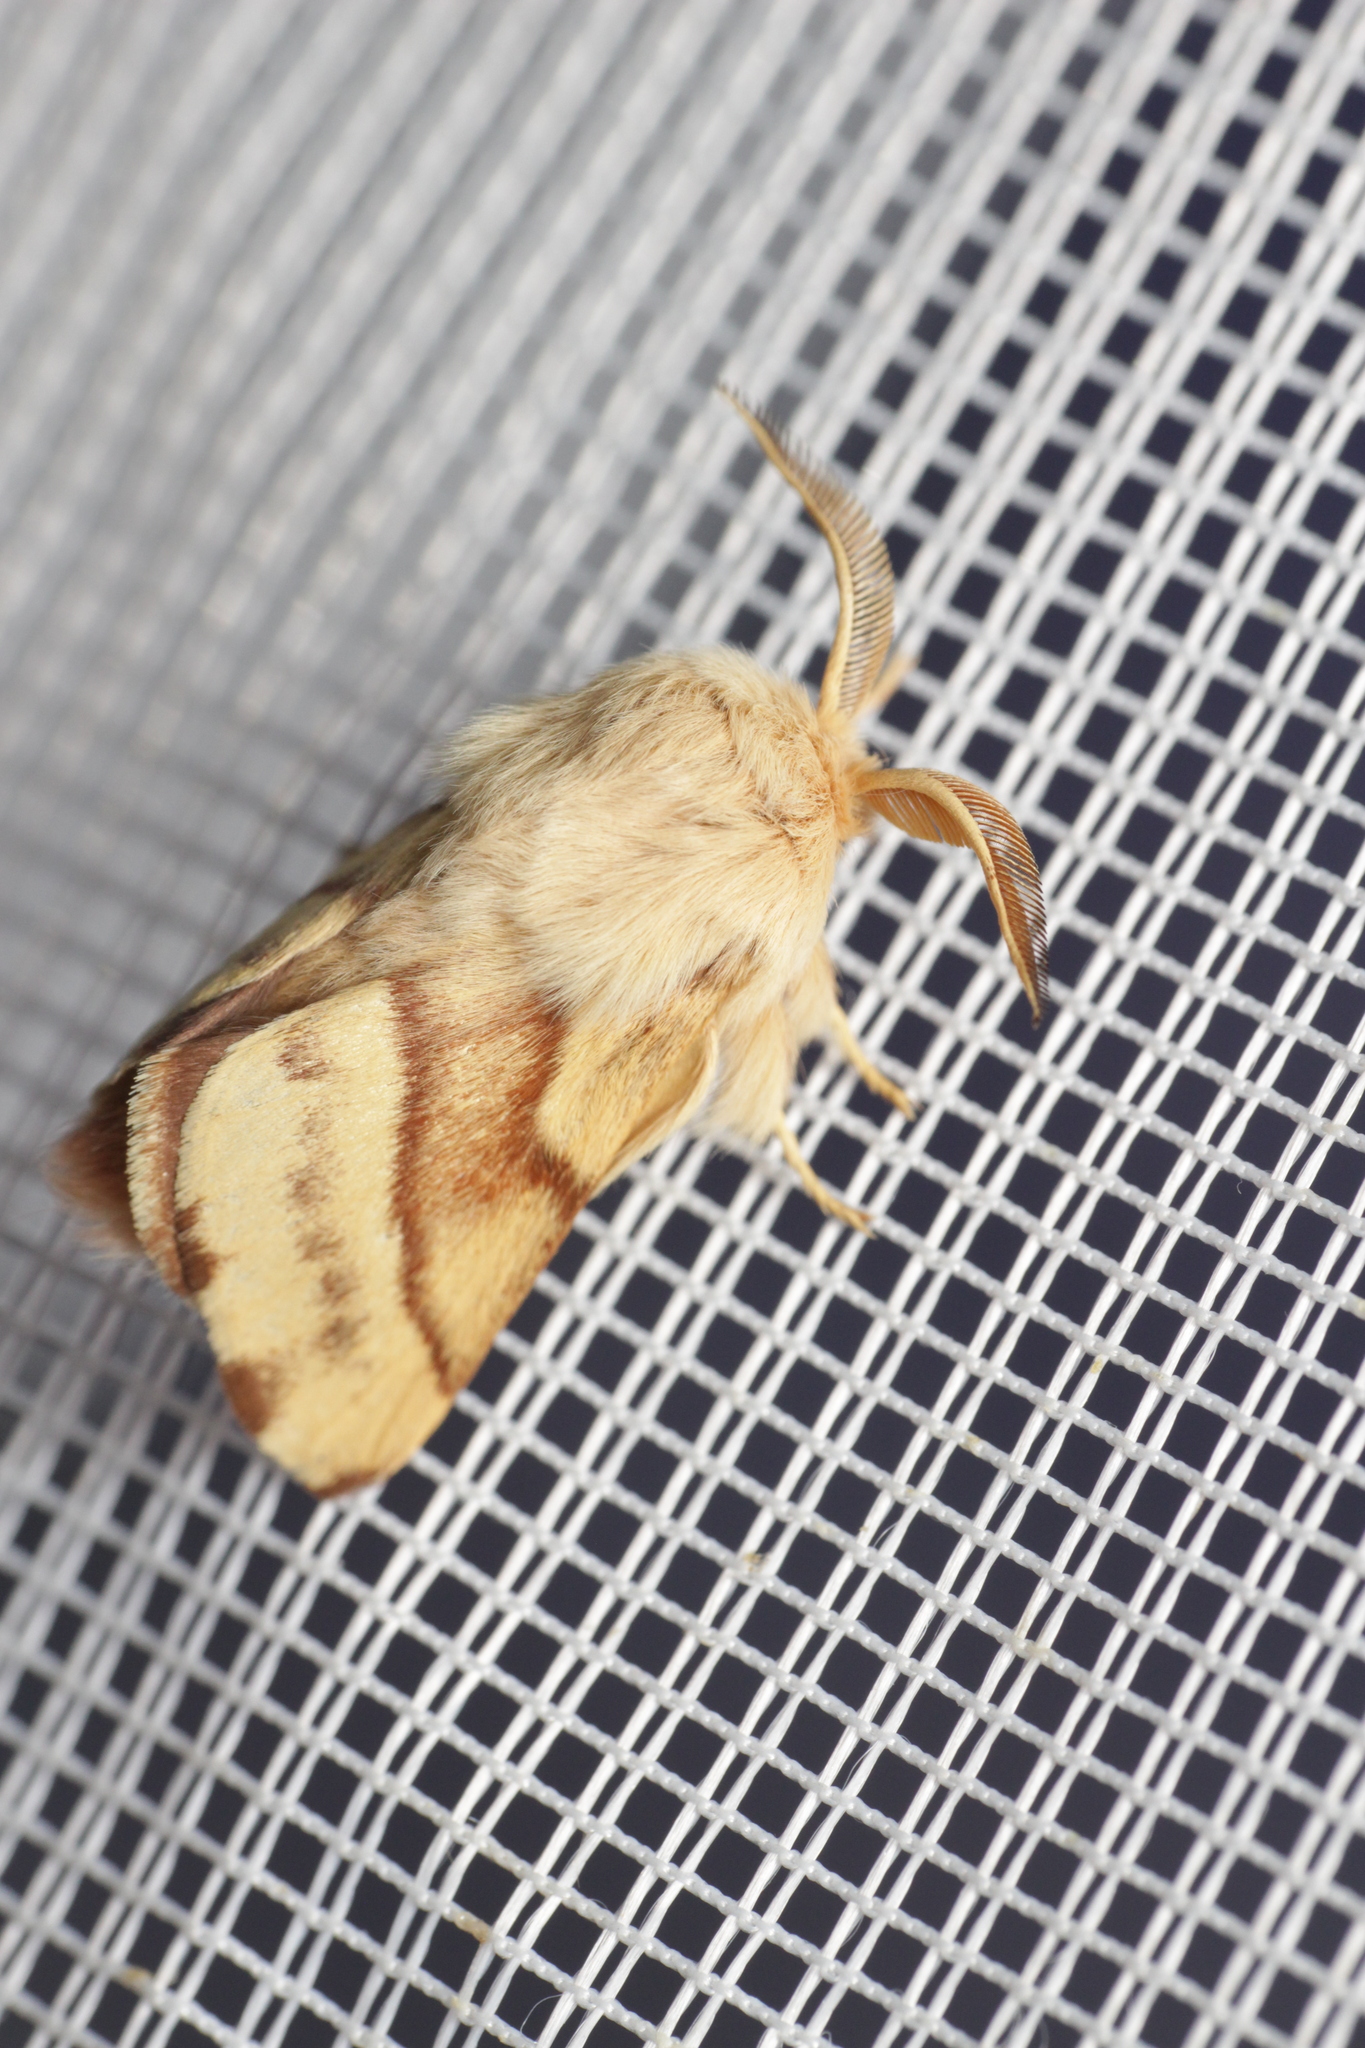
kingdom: Animalia
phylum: Arthropoda
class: Insecta
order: Lepidoptera
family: Lasiocampidae
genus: Malacosoma
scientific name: Malacosoma castrense
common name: Ground lackey
